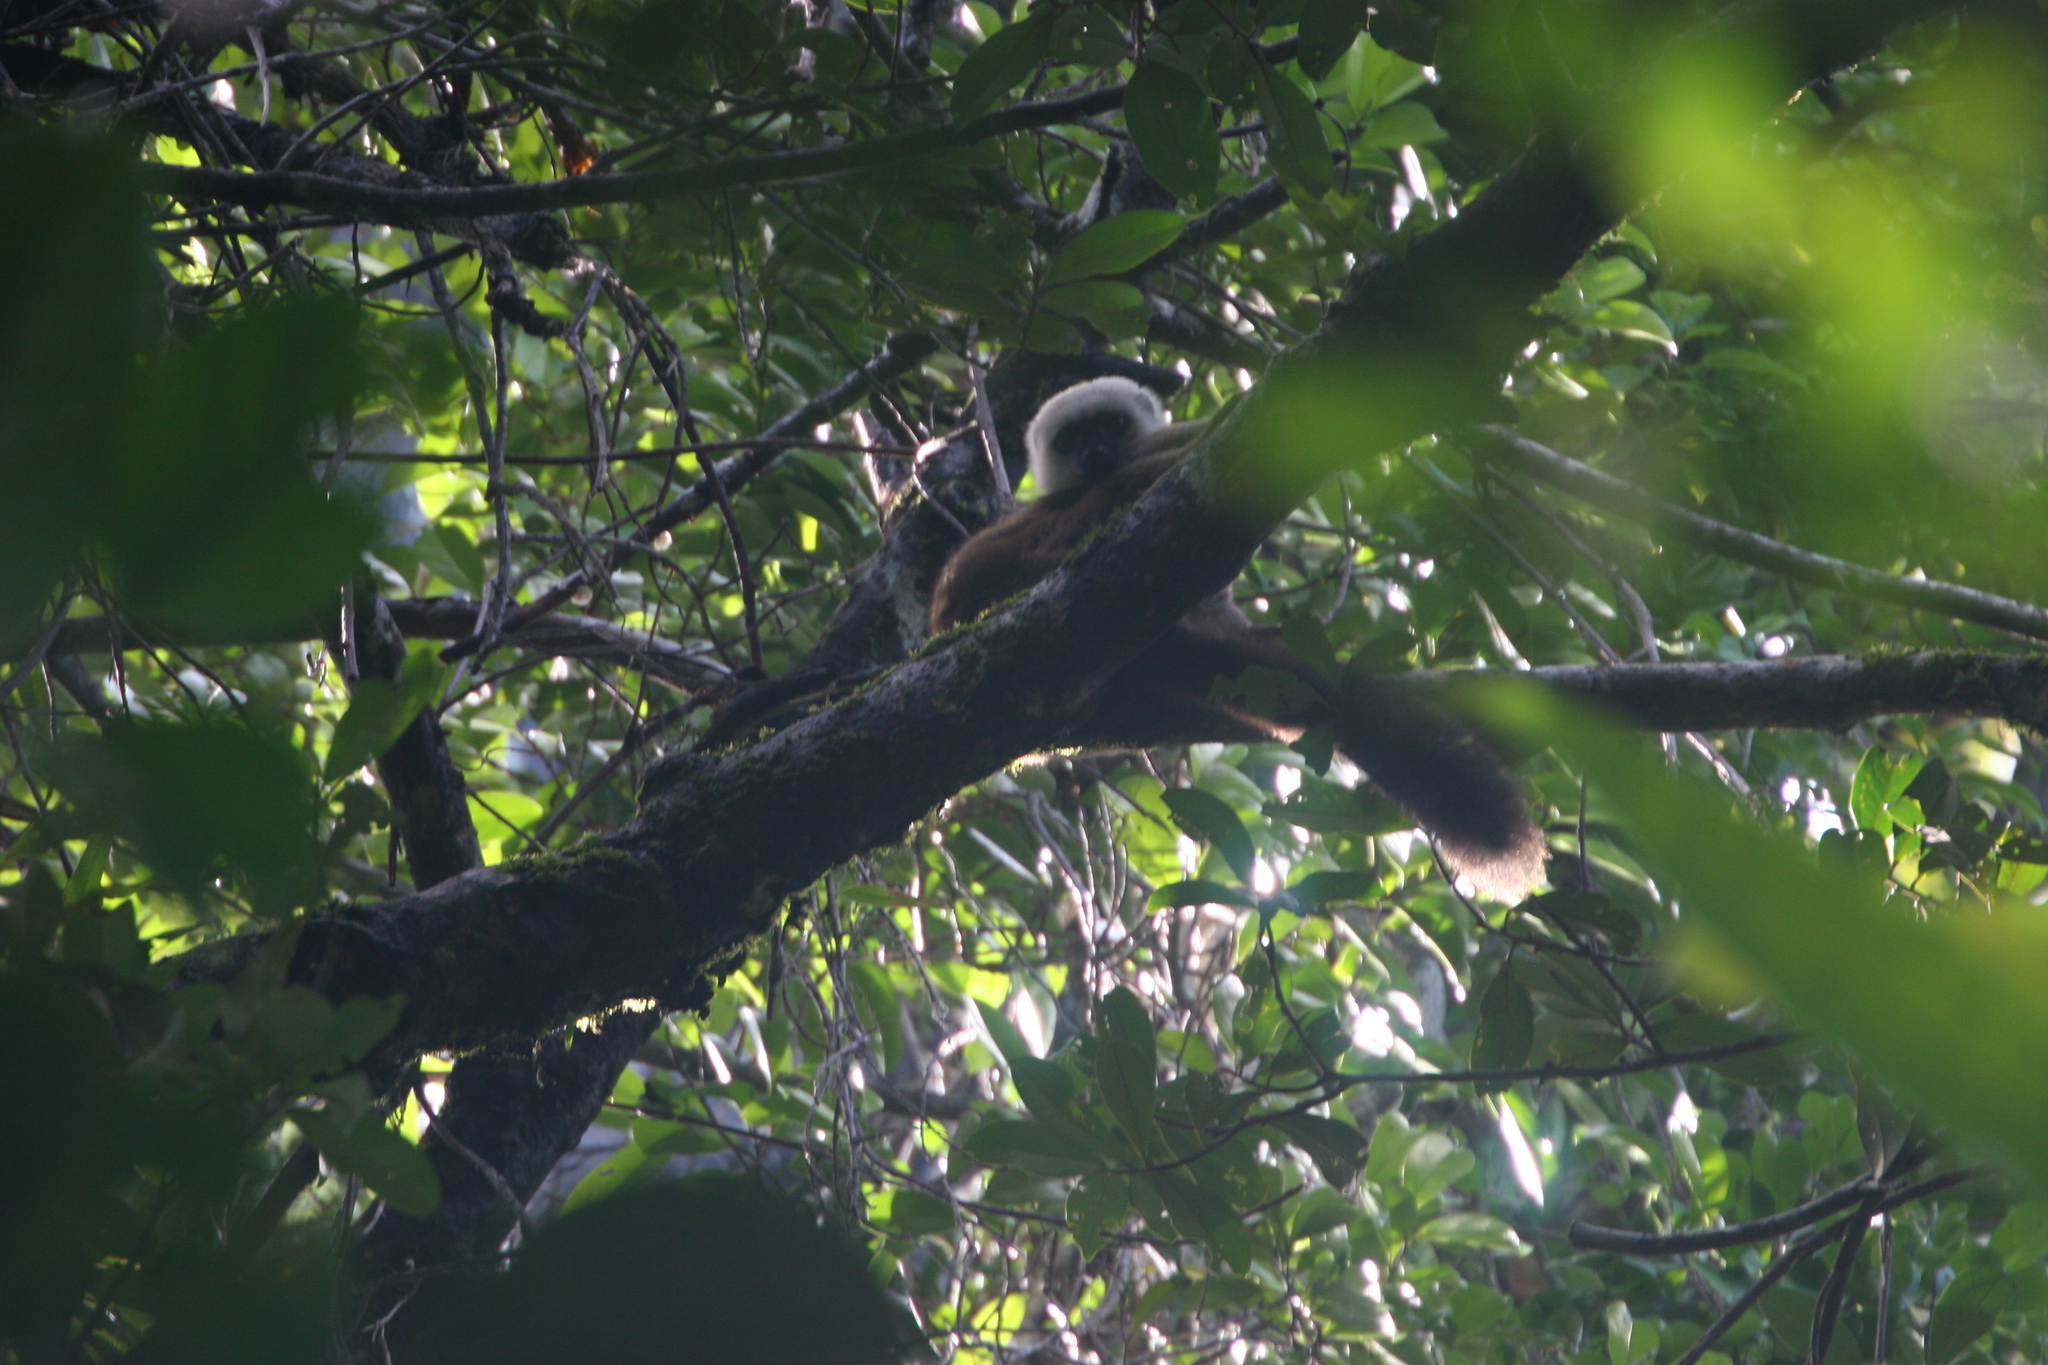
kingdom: Animalia
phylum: Chordata
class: Mammalia
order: Primates
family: Lemuridae
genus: Eulemur
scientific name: Eulemur albifrons
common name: White-headed lemur
